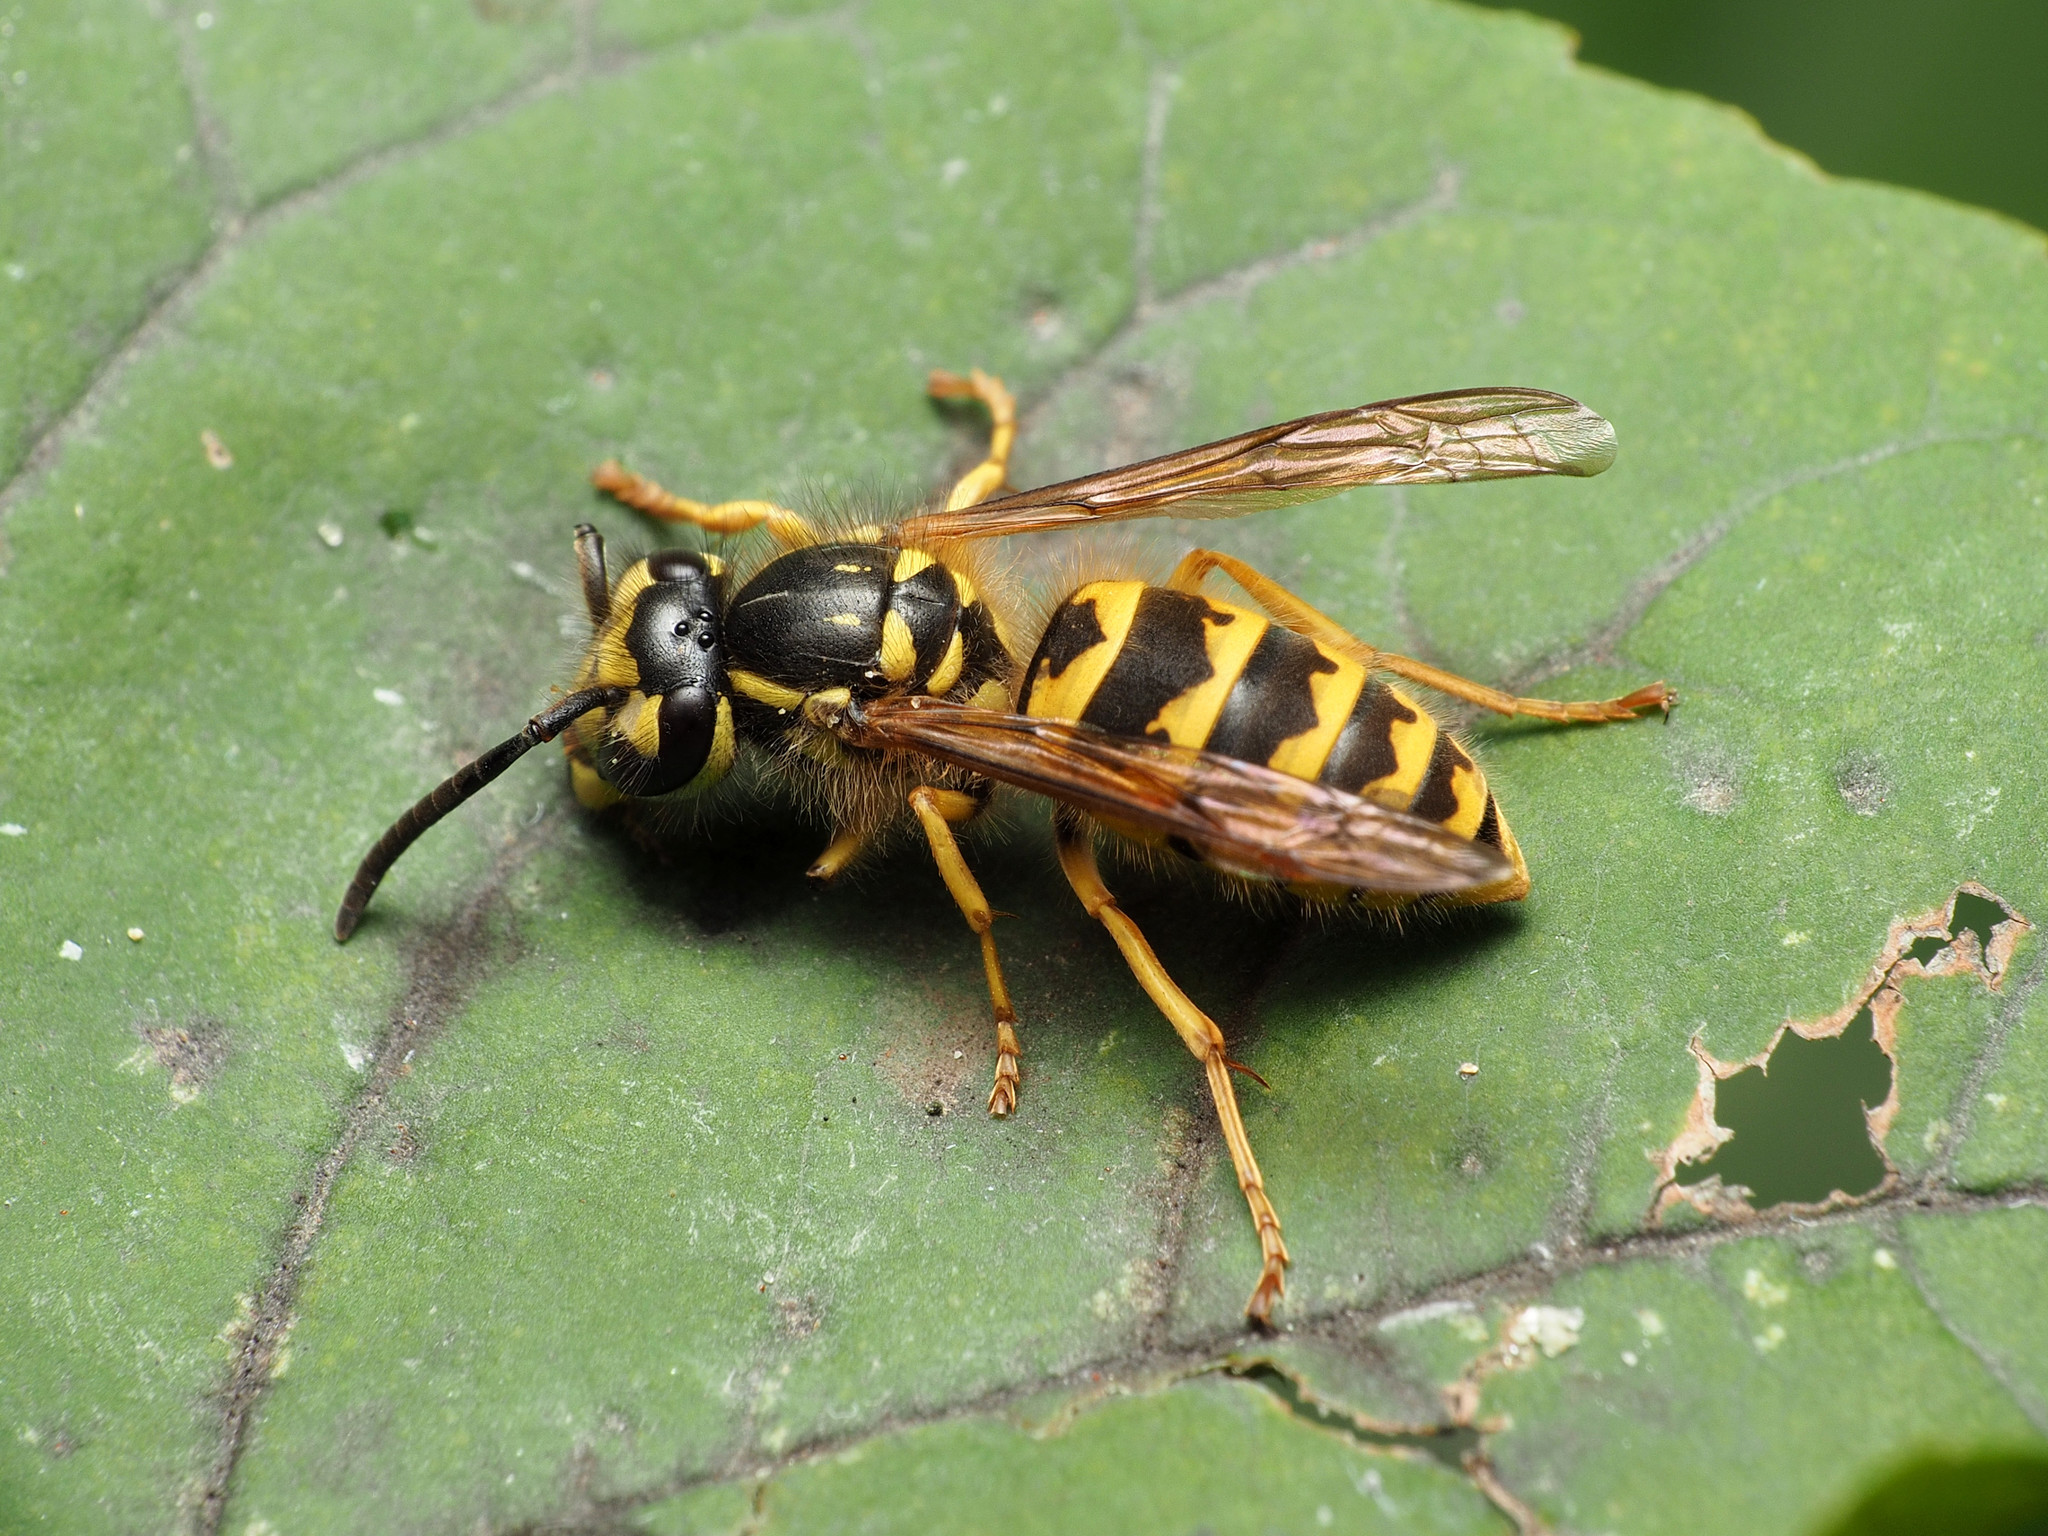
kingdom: Animalia
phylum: Arthropoda
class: Insecta
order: Hymenoptera
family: Vespidae
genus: Vespula
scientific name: Vespula flavopilosa
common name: Downy yellowjacket
